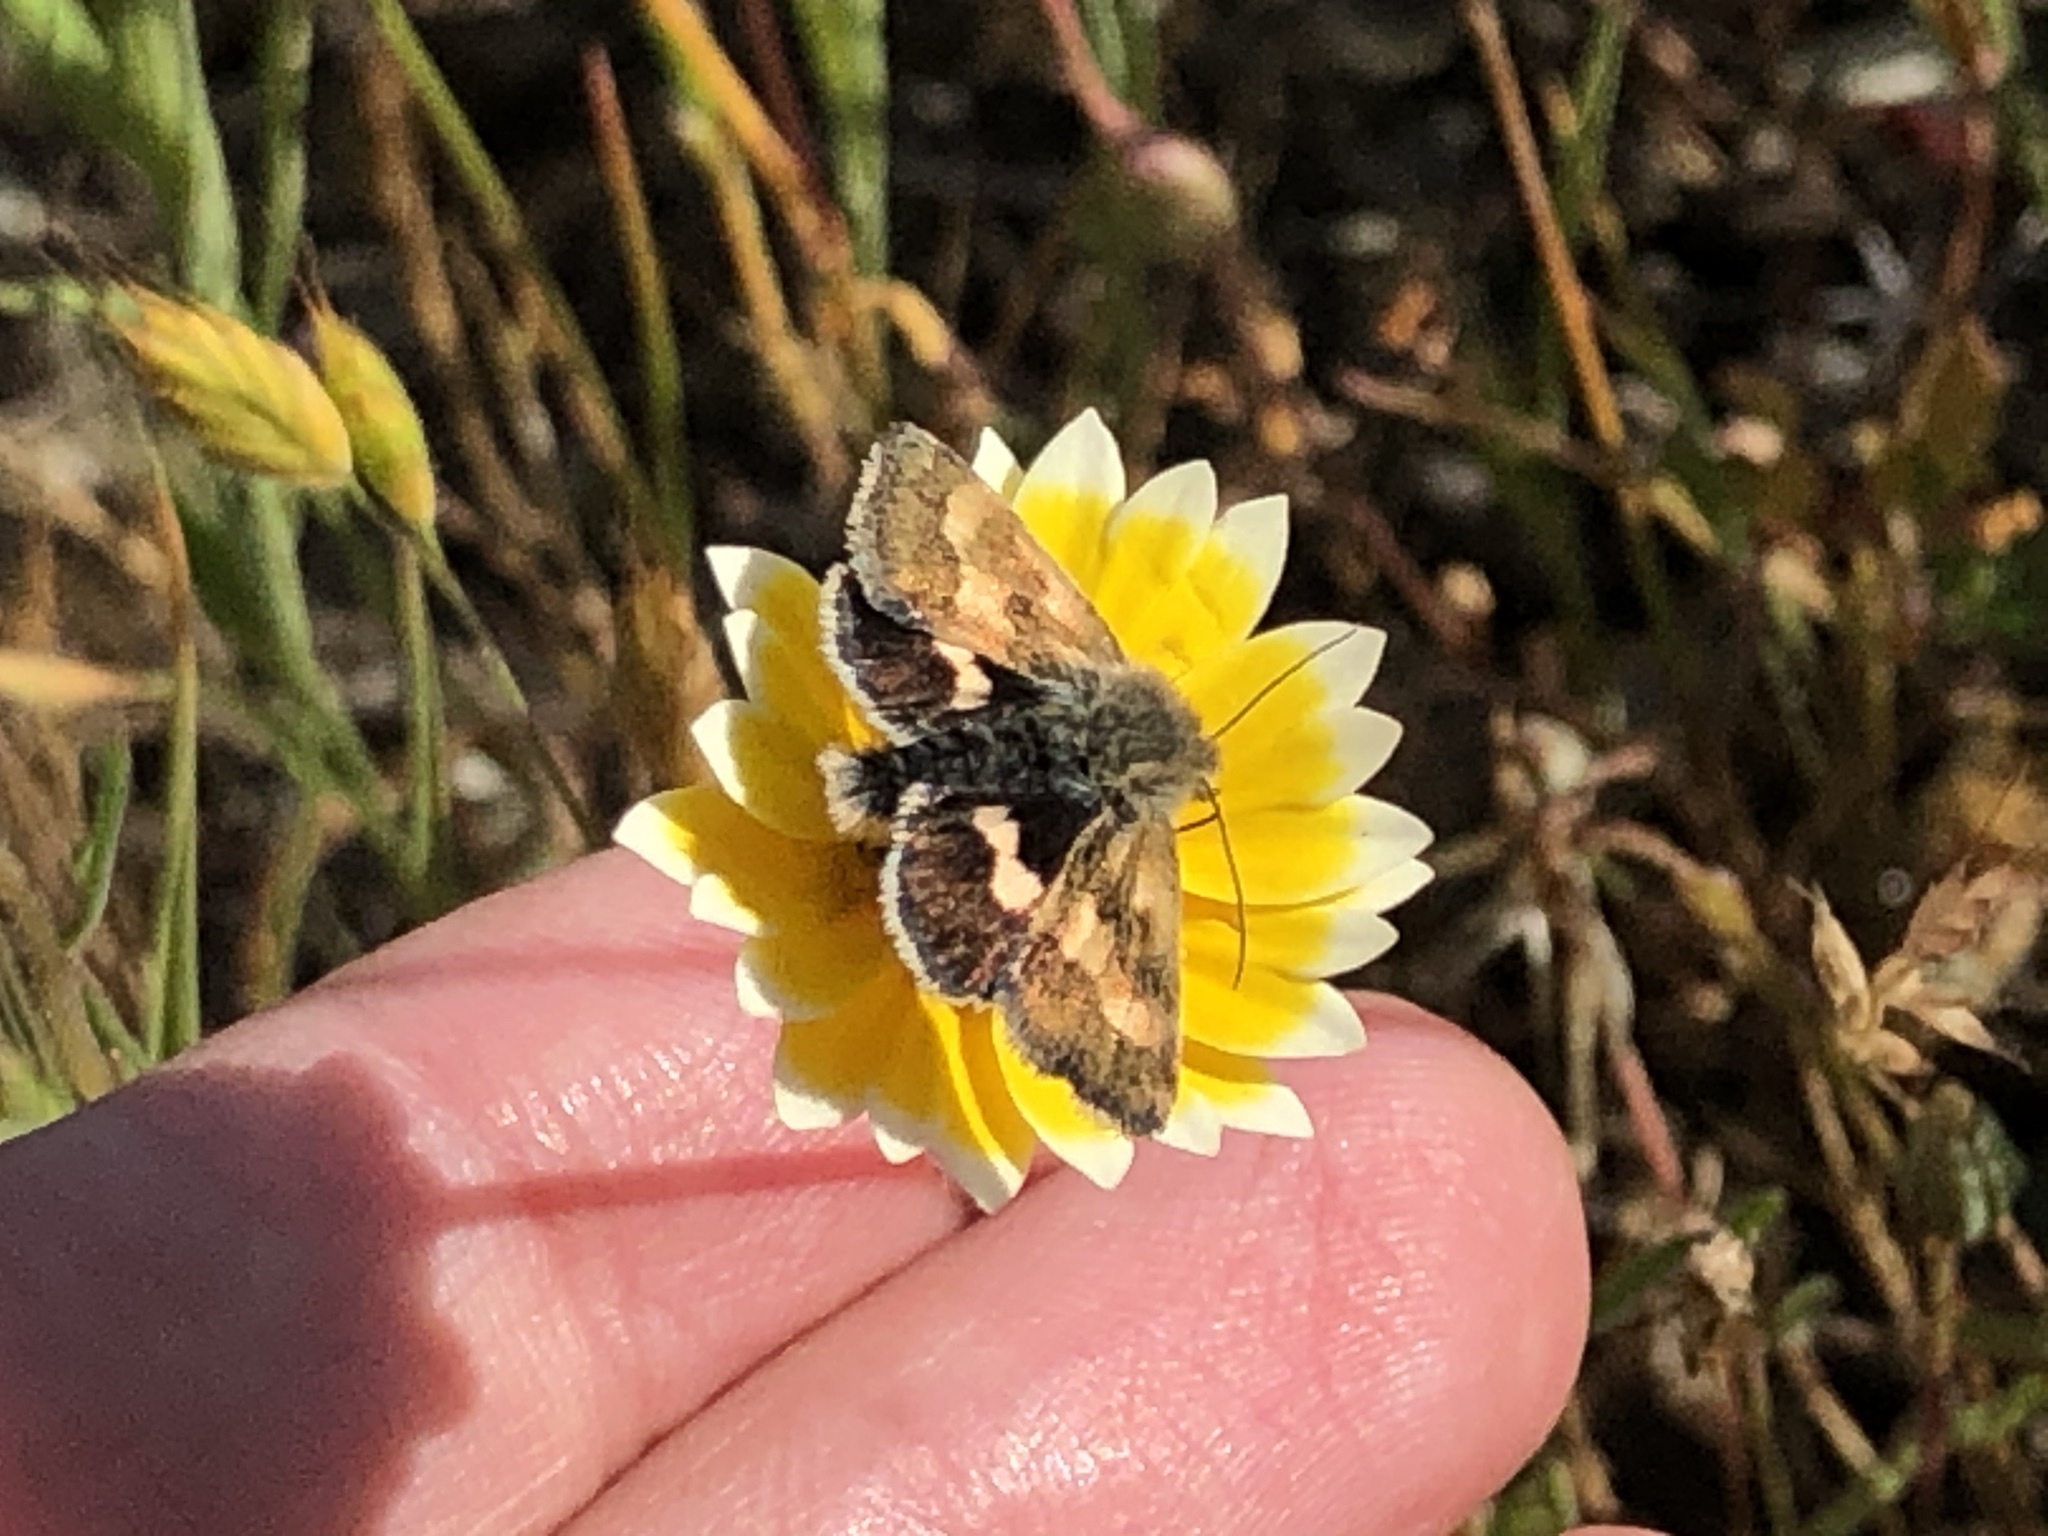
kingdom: Animalia
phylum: Arthropoda
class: Insecta
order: Lepidoptera
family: Noctuidae
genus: Heliothodes
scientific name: Heliothodes diminutiva
